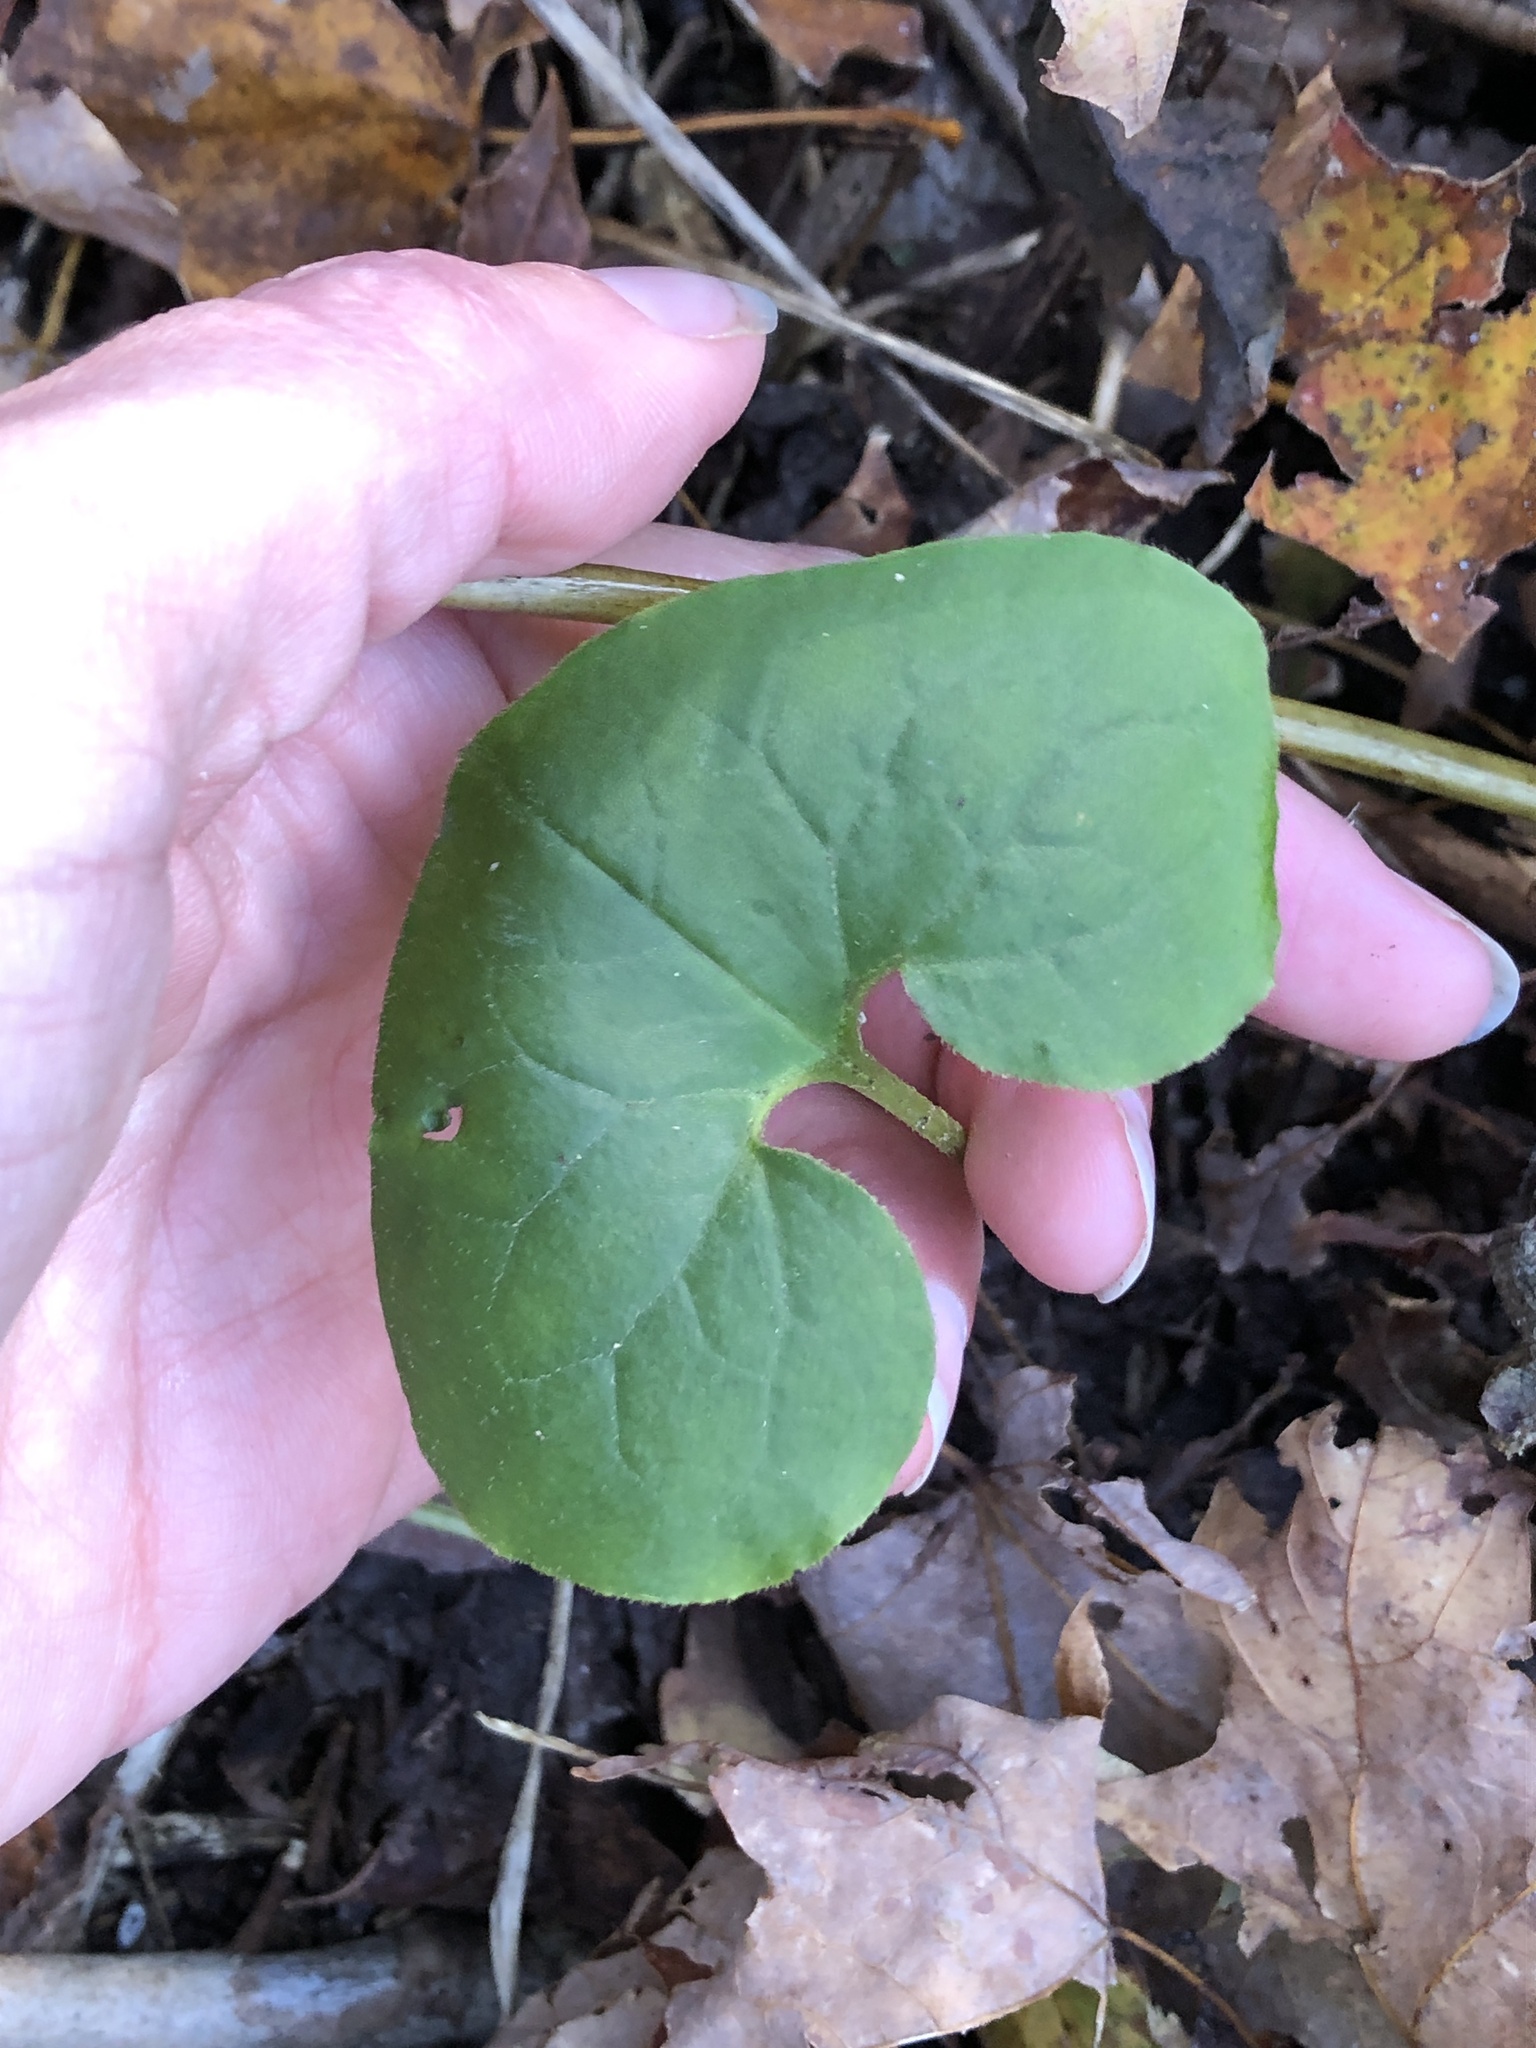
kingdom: Plantae
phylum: Tracheophyta
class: Magnoliopsida
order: Piperales
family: Aristolochiaceae
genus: Asarum
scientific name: Asarum canadense
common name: Wild ginger
